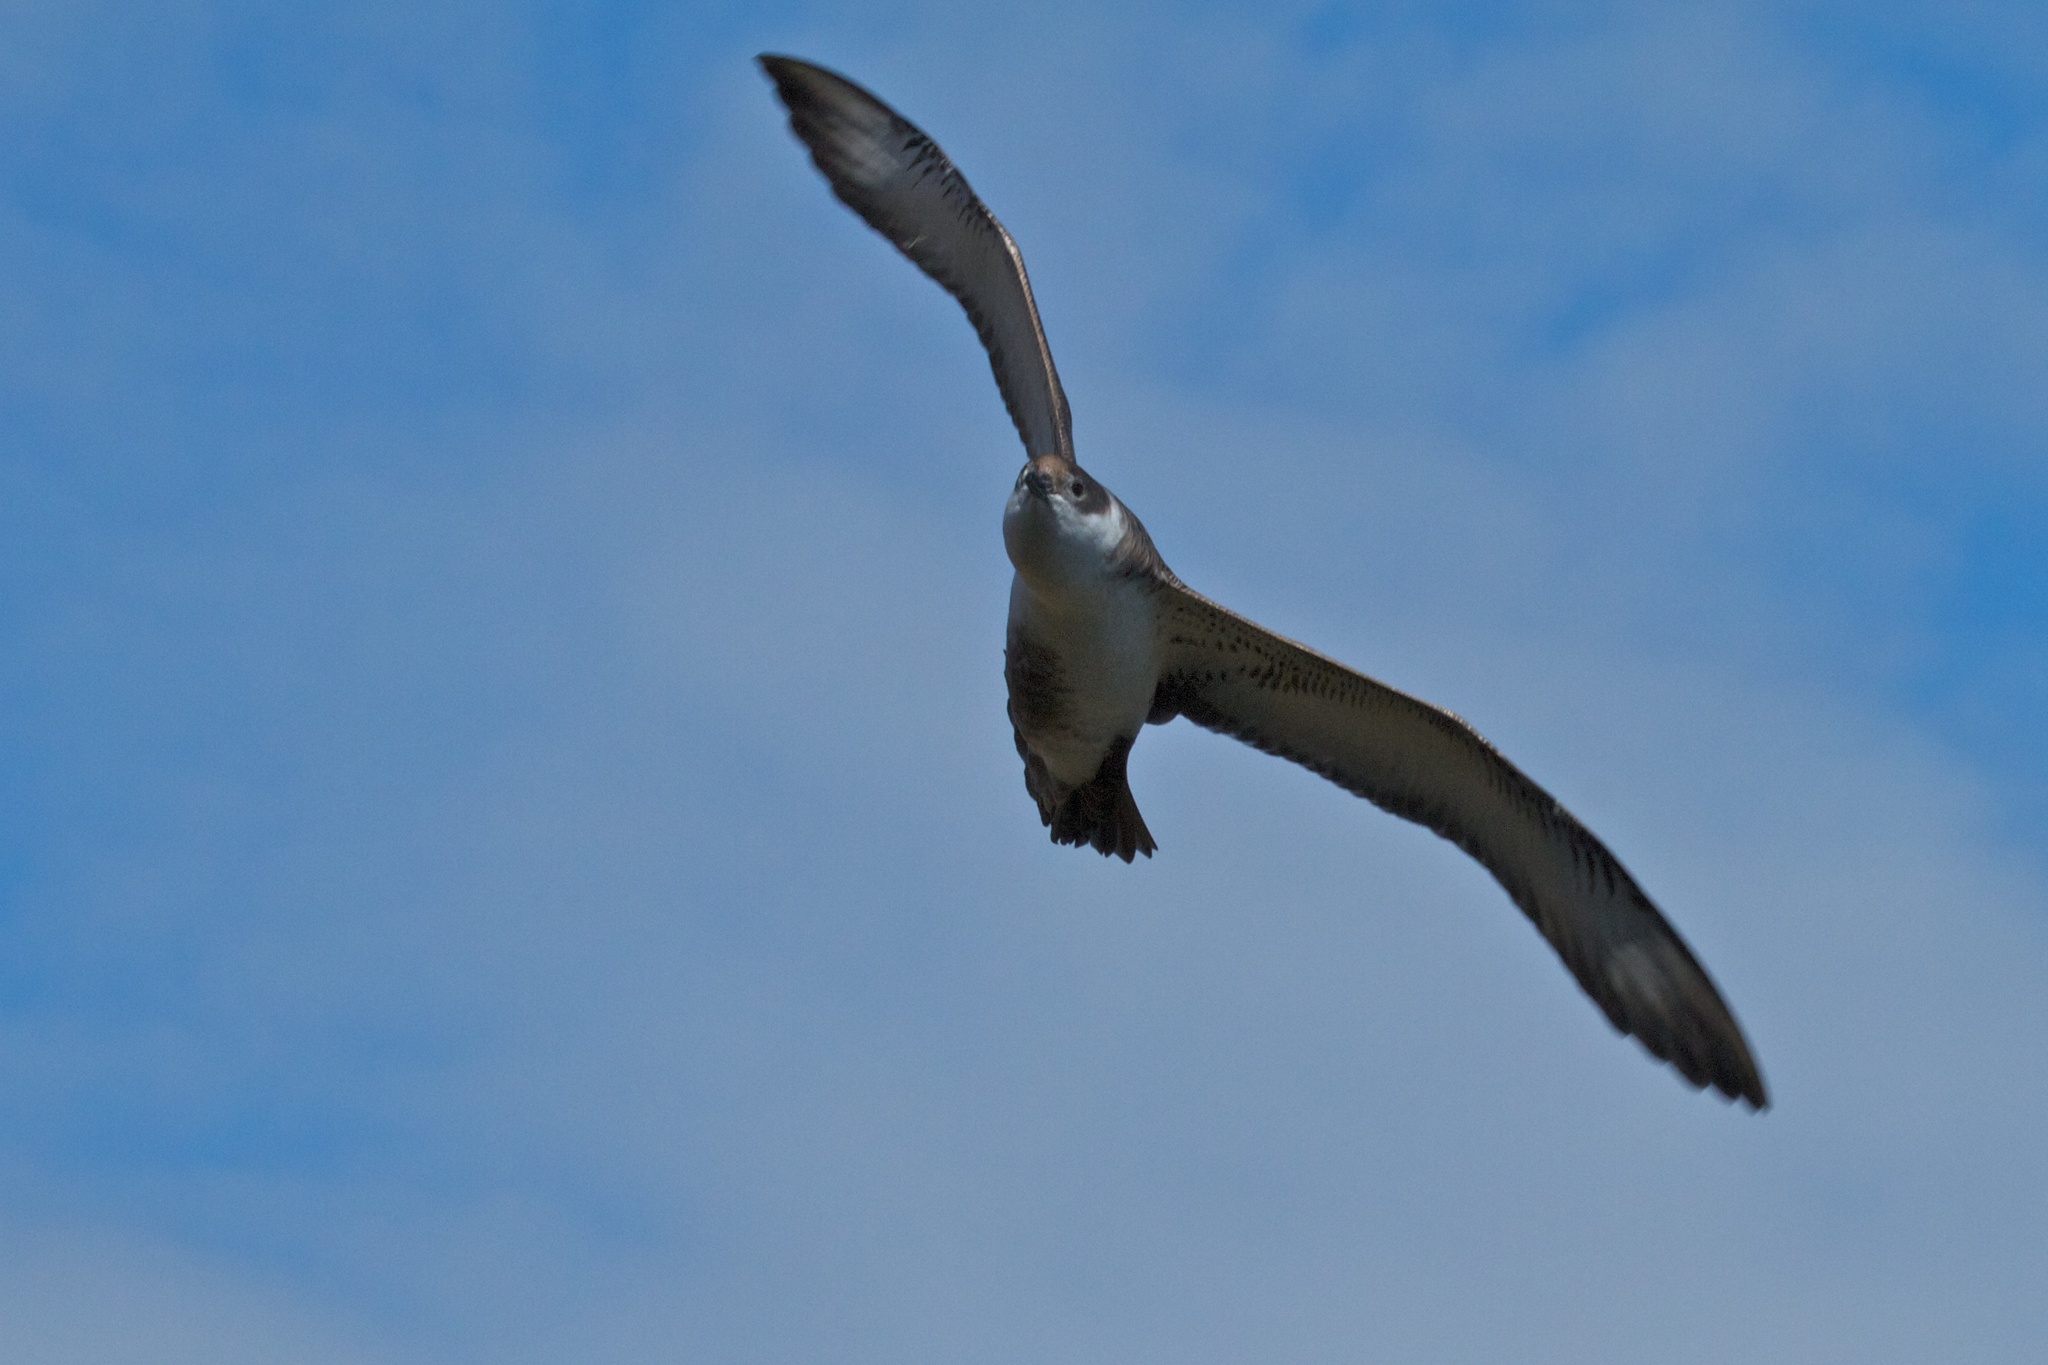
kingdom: Animalia
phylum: Chordata
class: Aves
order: Procellariiformes
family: Procellariidae
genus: Puffinus
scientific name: Puffinus gravis
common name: Great shearwater
